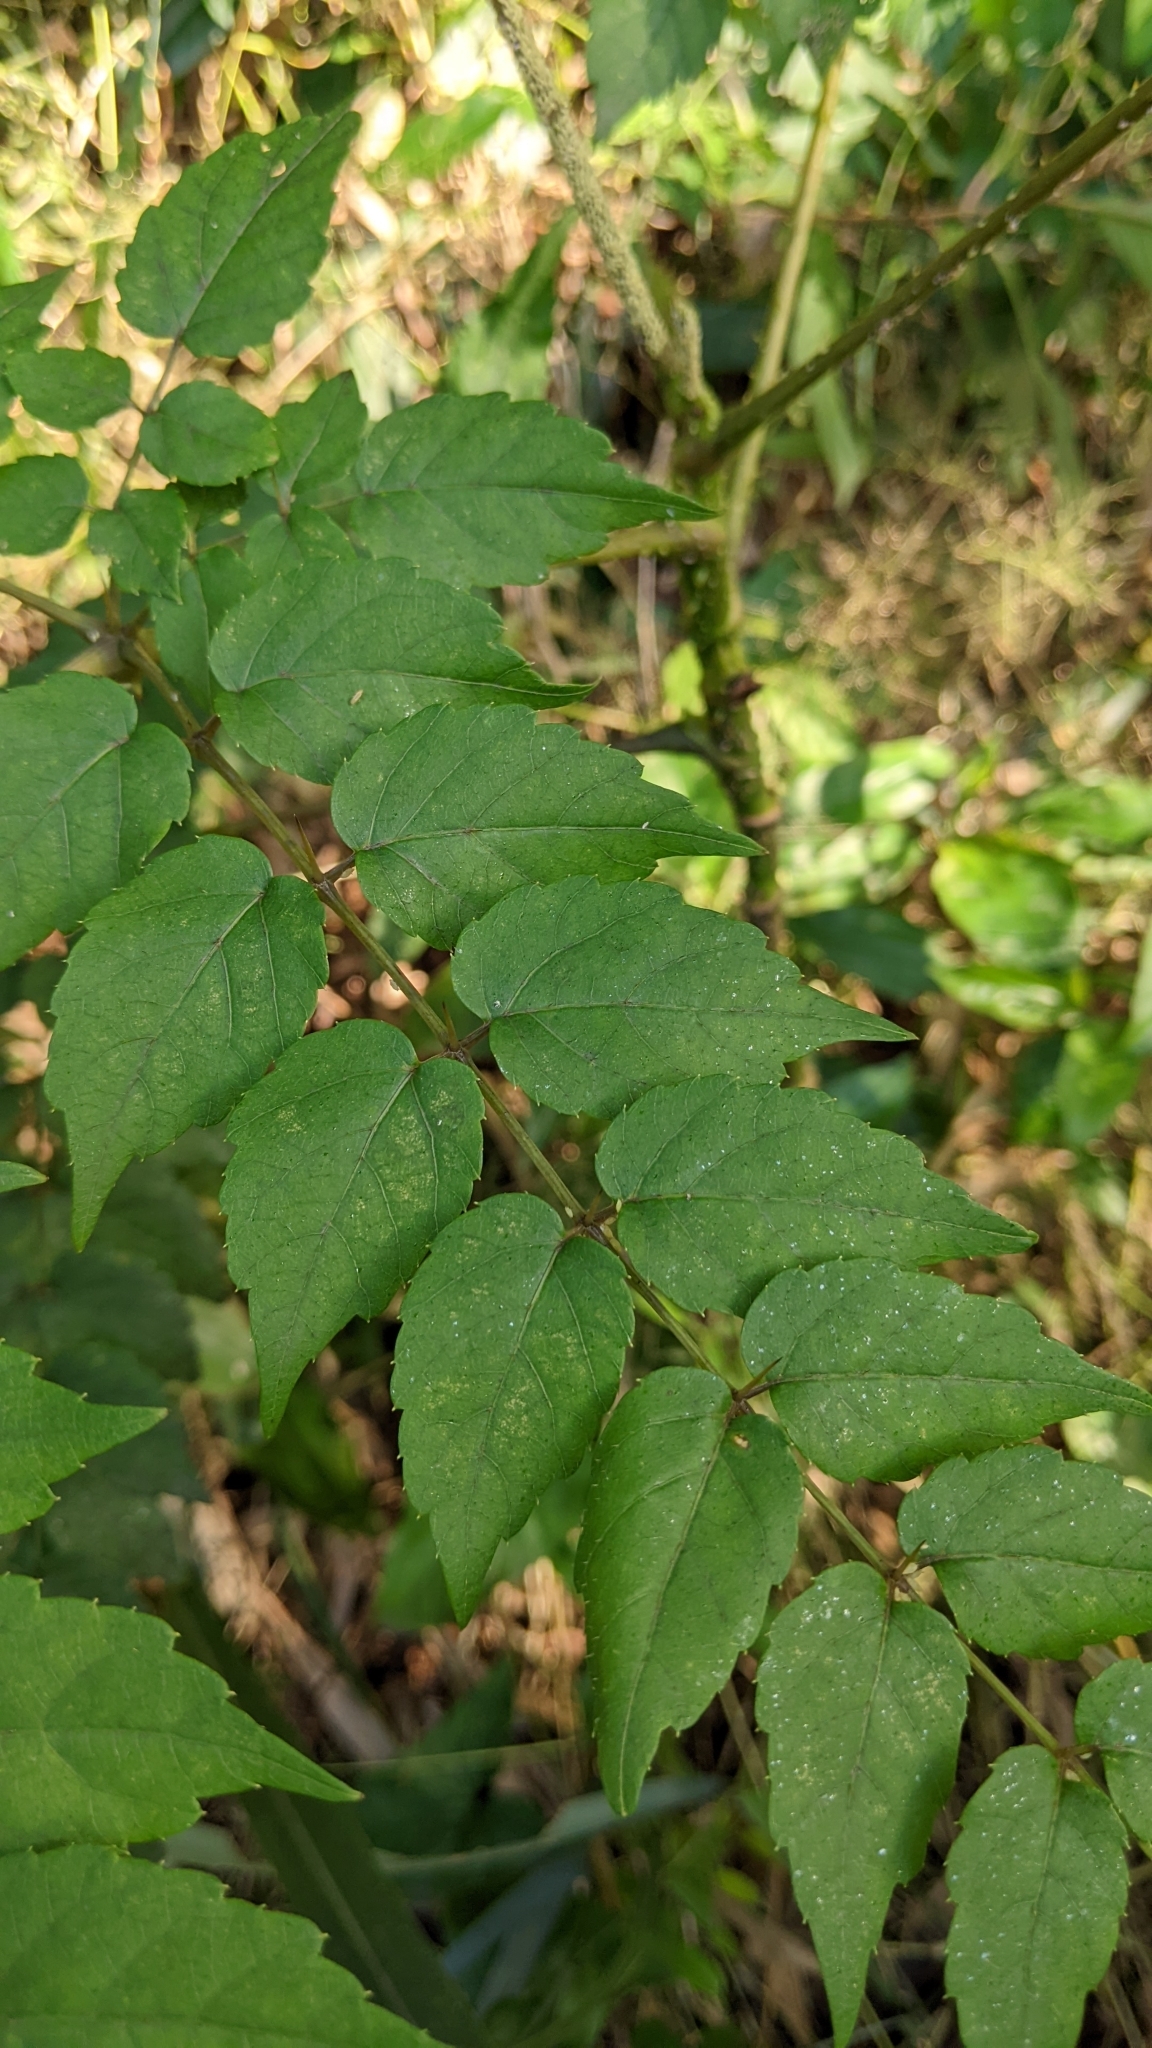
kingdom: Plantae
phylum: Tracheophyta
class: Magnoliopsida
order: Apiales
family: Araliaceae
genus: Aralia
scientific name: Aralia bipinnata
